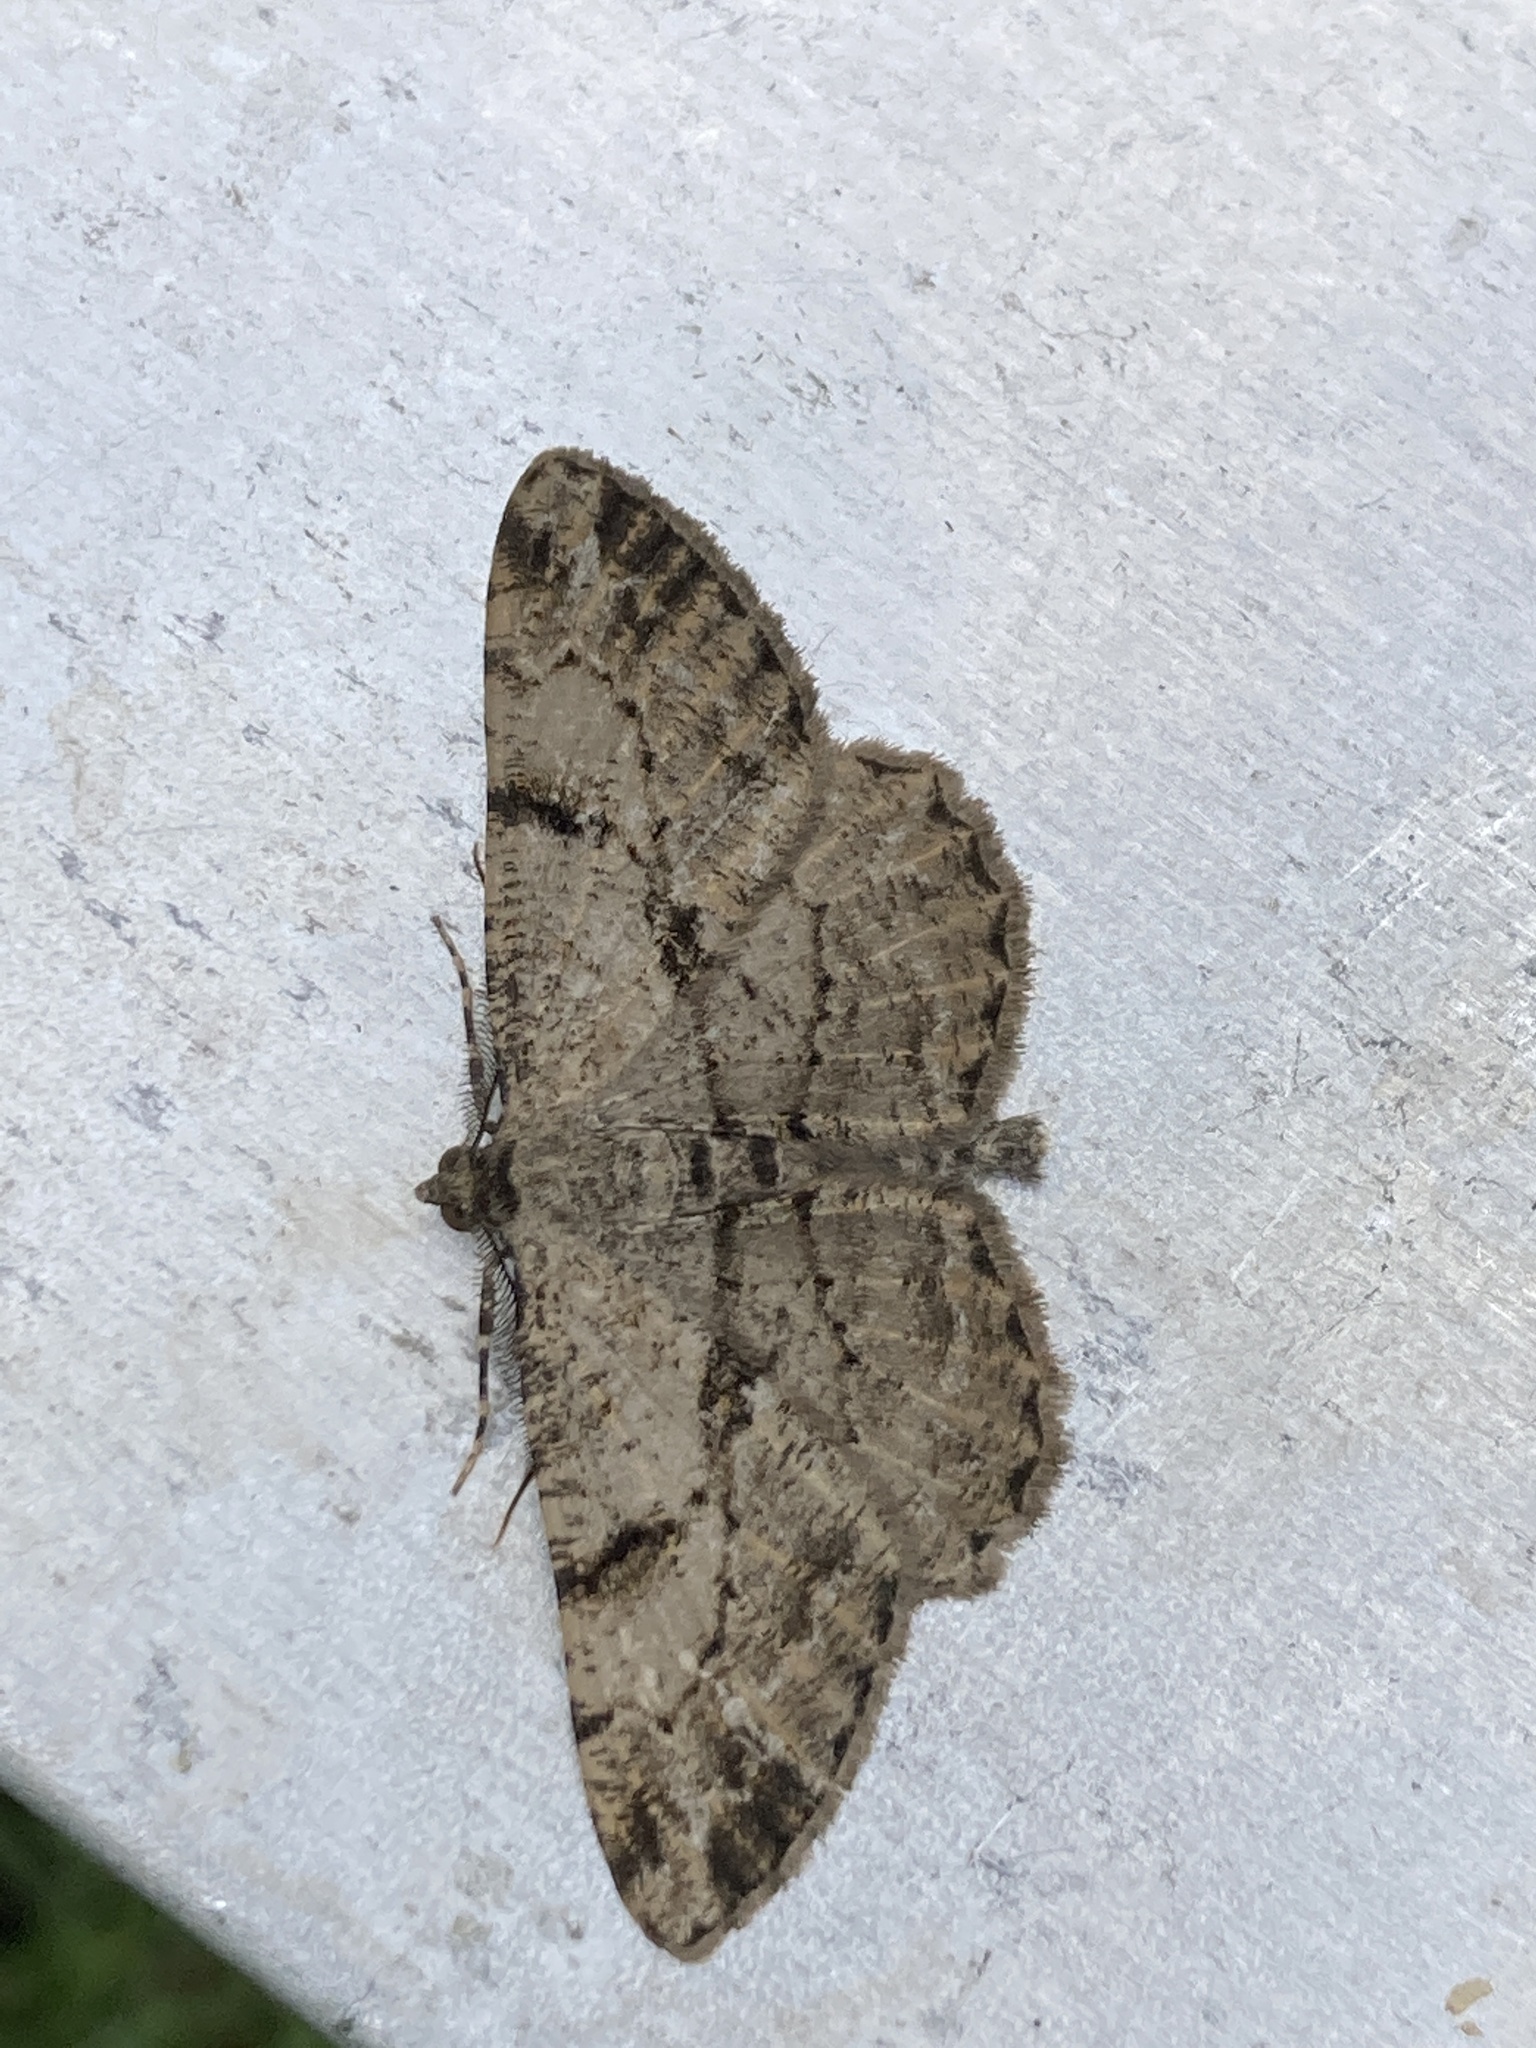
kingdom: Animalia
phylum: Arthropoda
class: Insecta
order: Lepidoptera
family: Geometridae
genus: Peribatodes
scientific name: Peribatodes rhomboidaria
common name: Willow beauty
